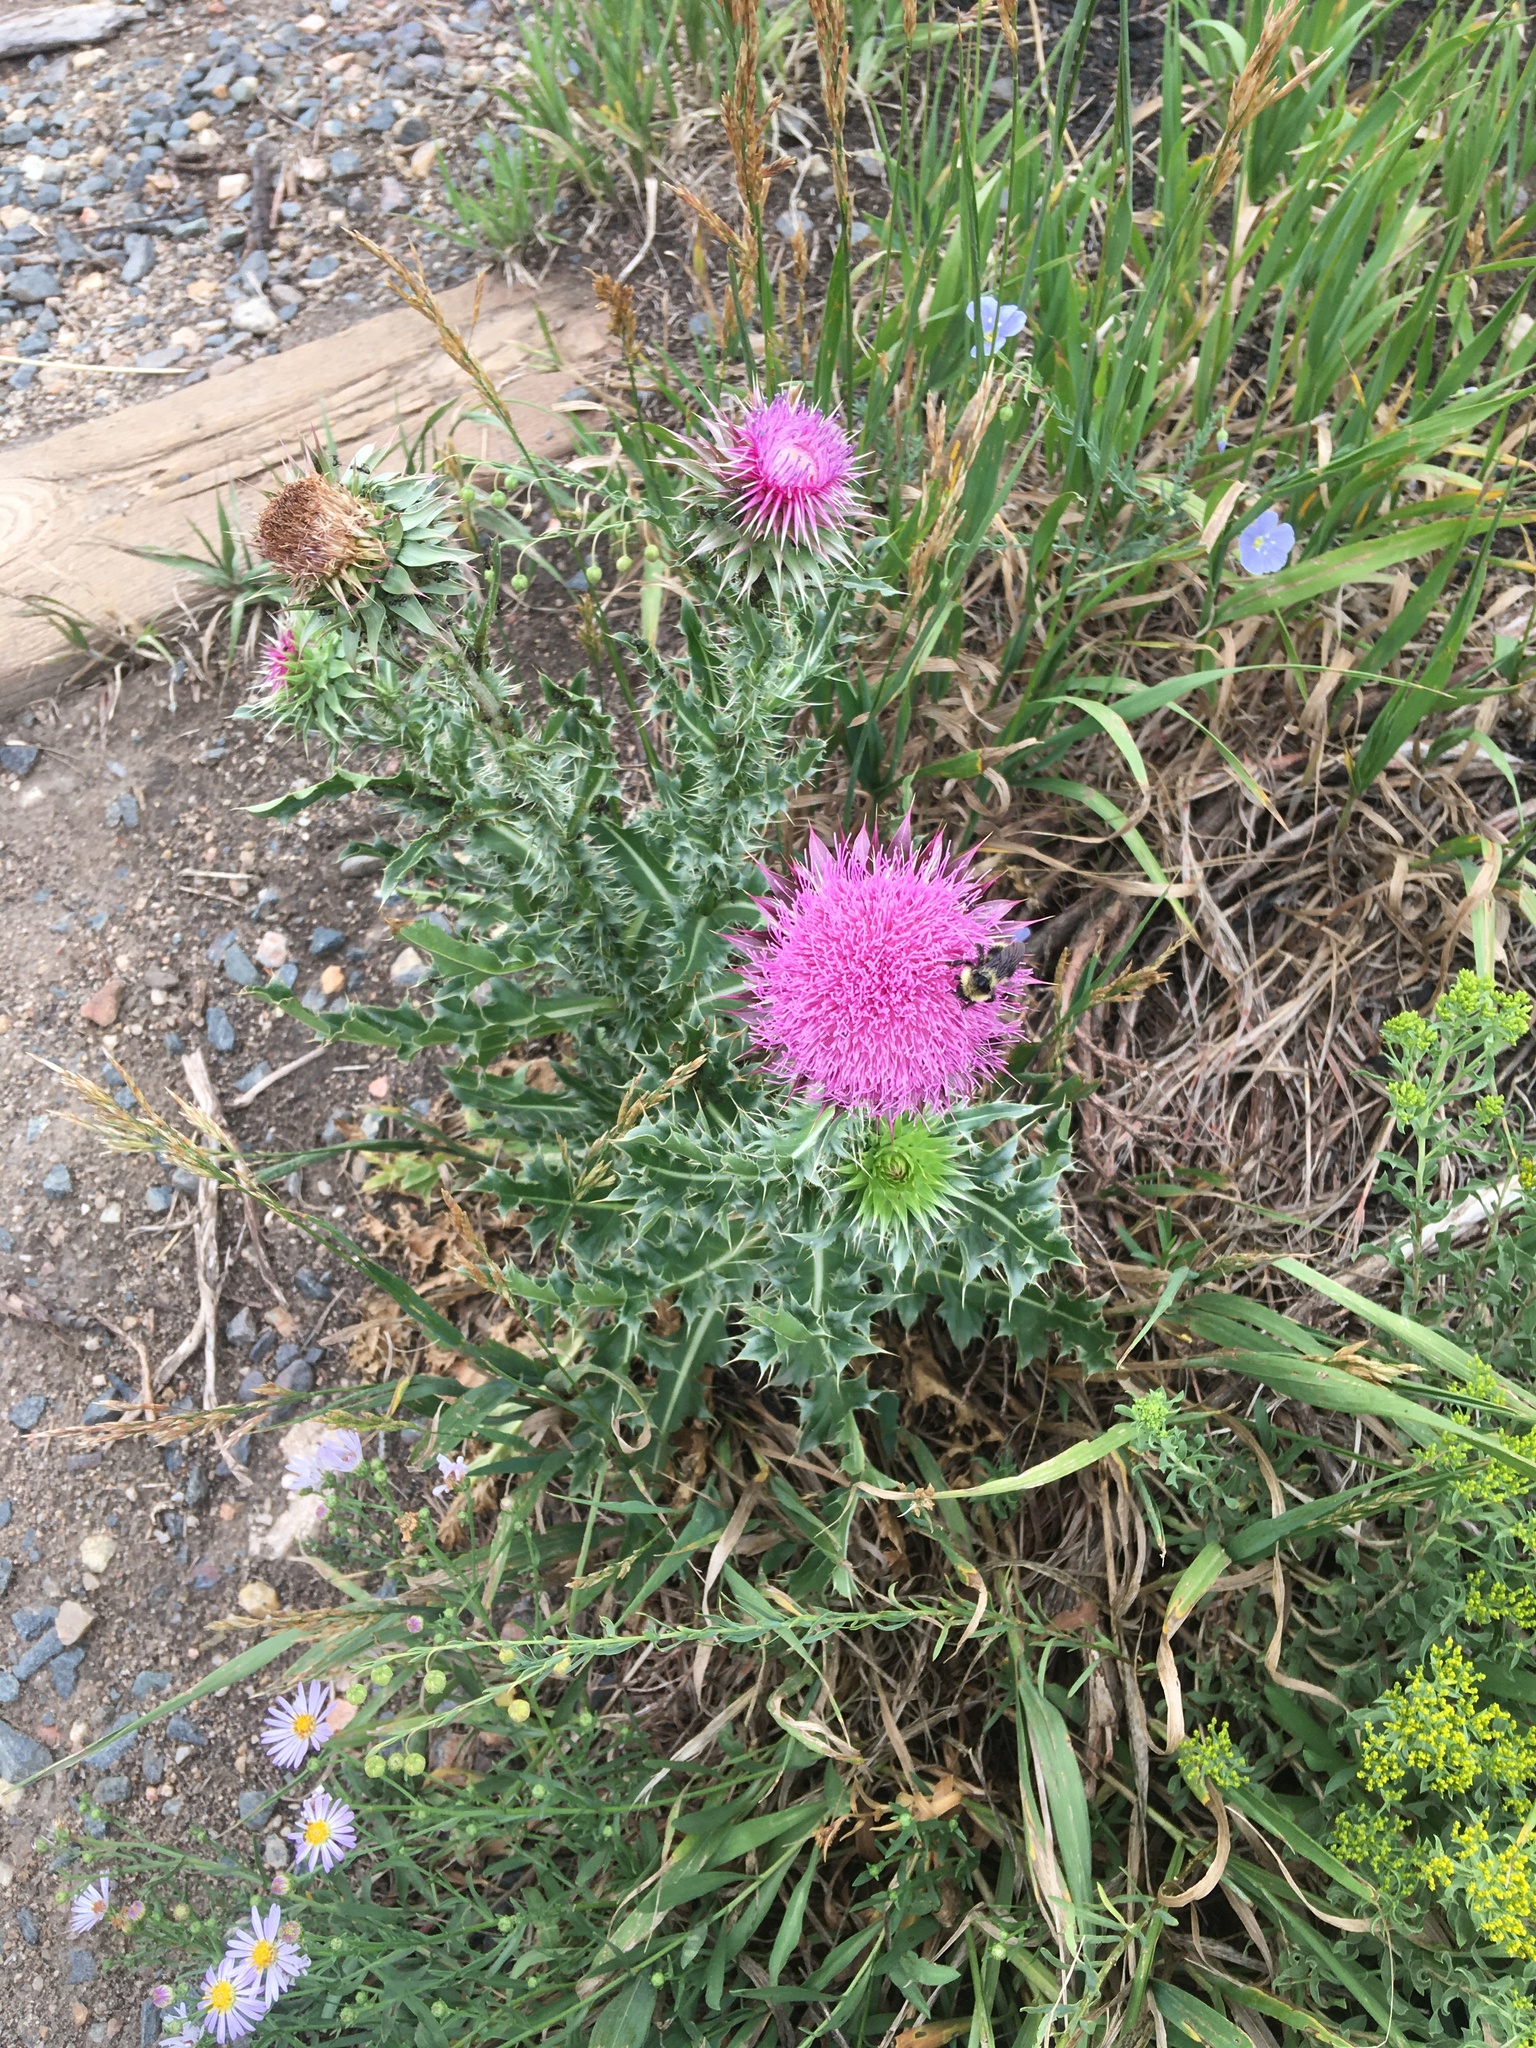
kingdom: Plantae
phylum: Tracheophyta
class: Magnoliopsida
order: Asterales
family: Asteraceae
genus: Carduus
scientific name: Carduus nutans
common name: Musk thistle
